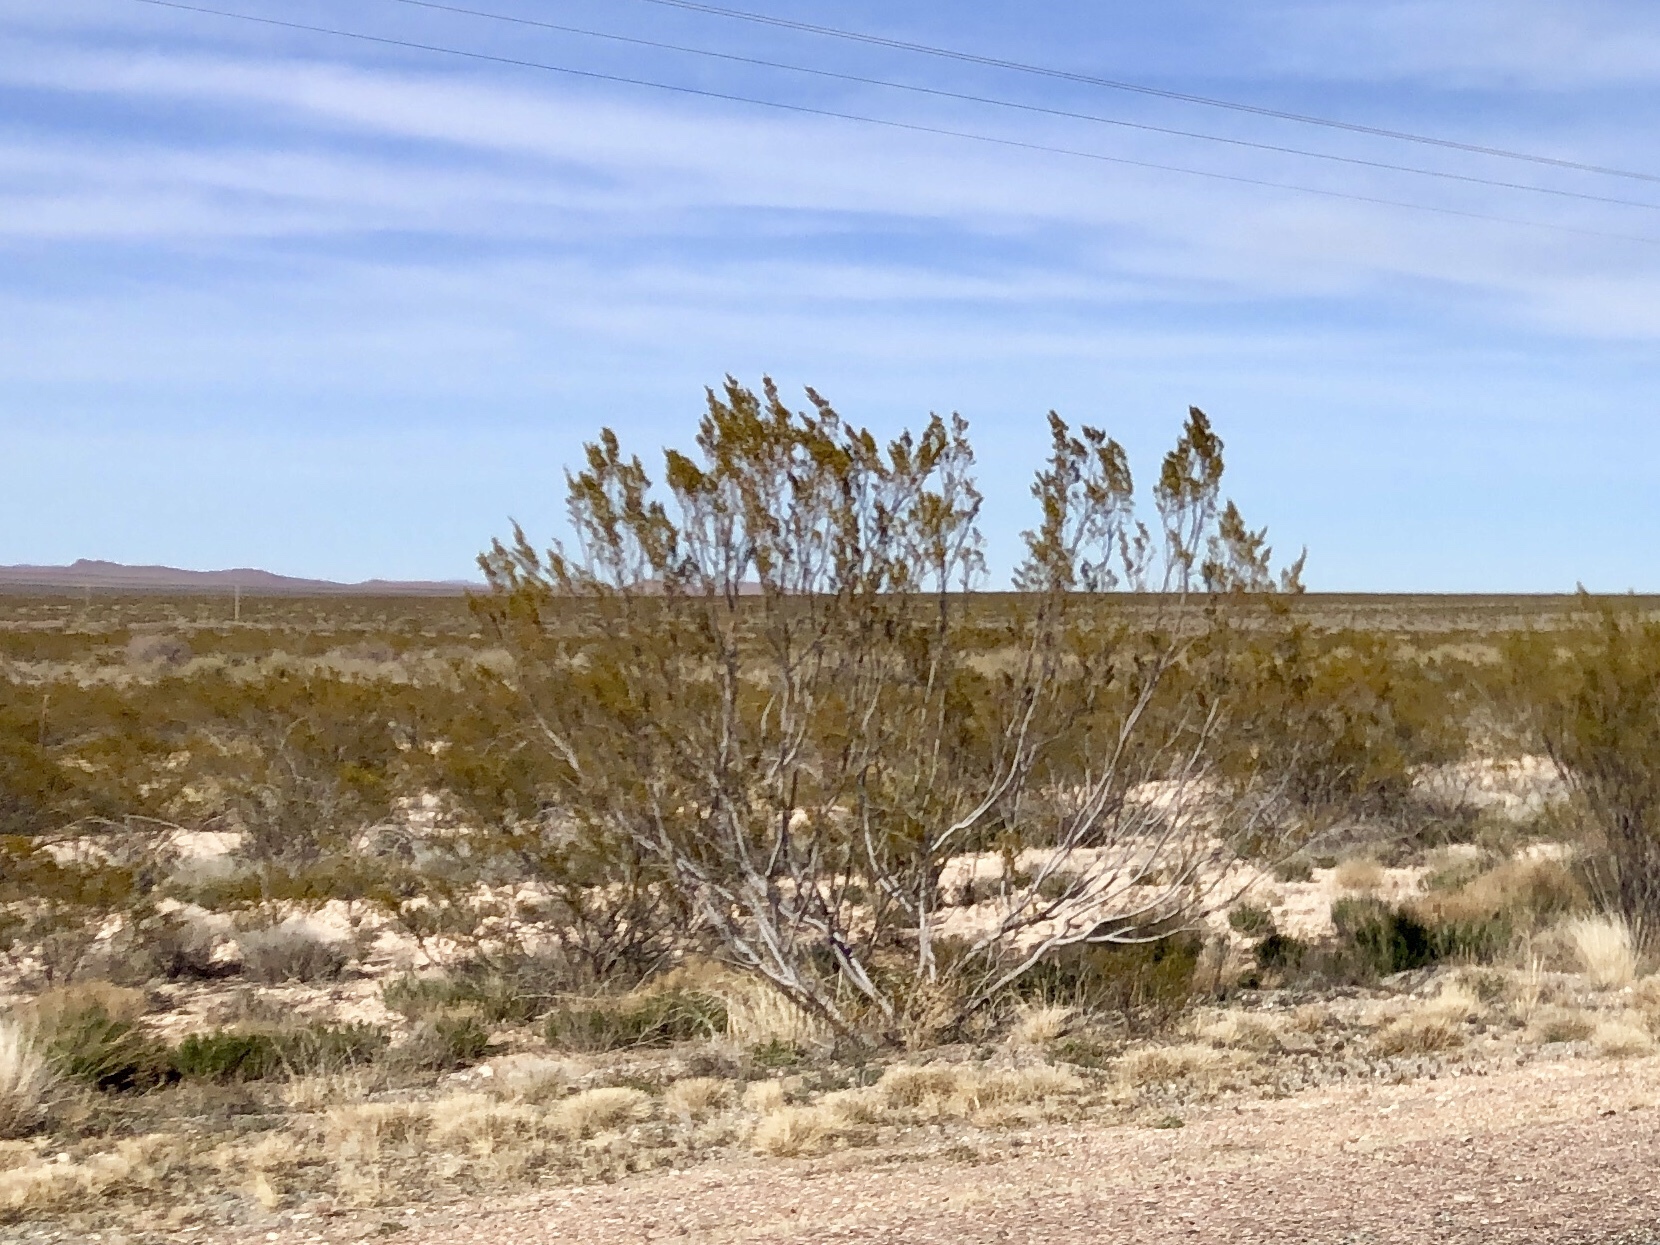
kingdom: Plantae
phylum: Tracheophyta
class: Magnoliopsida
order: Zygophyllales
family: Zygophyllaceae
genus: Larrea
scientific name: Larrea tridentata
